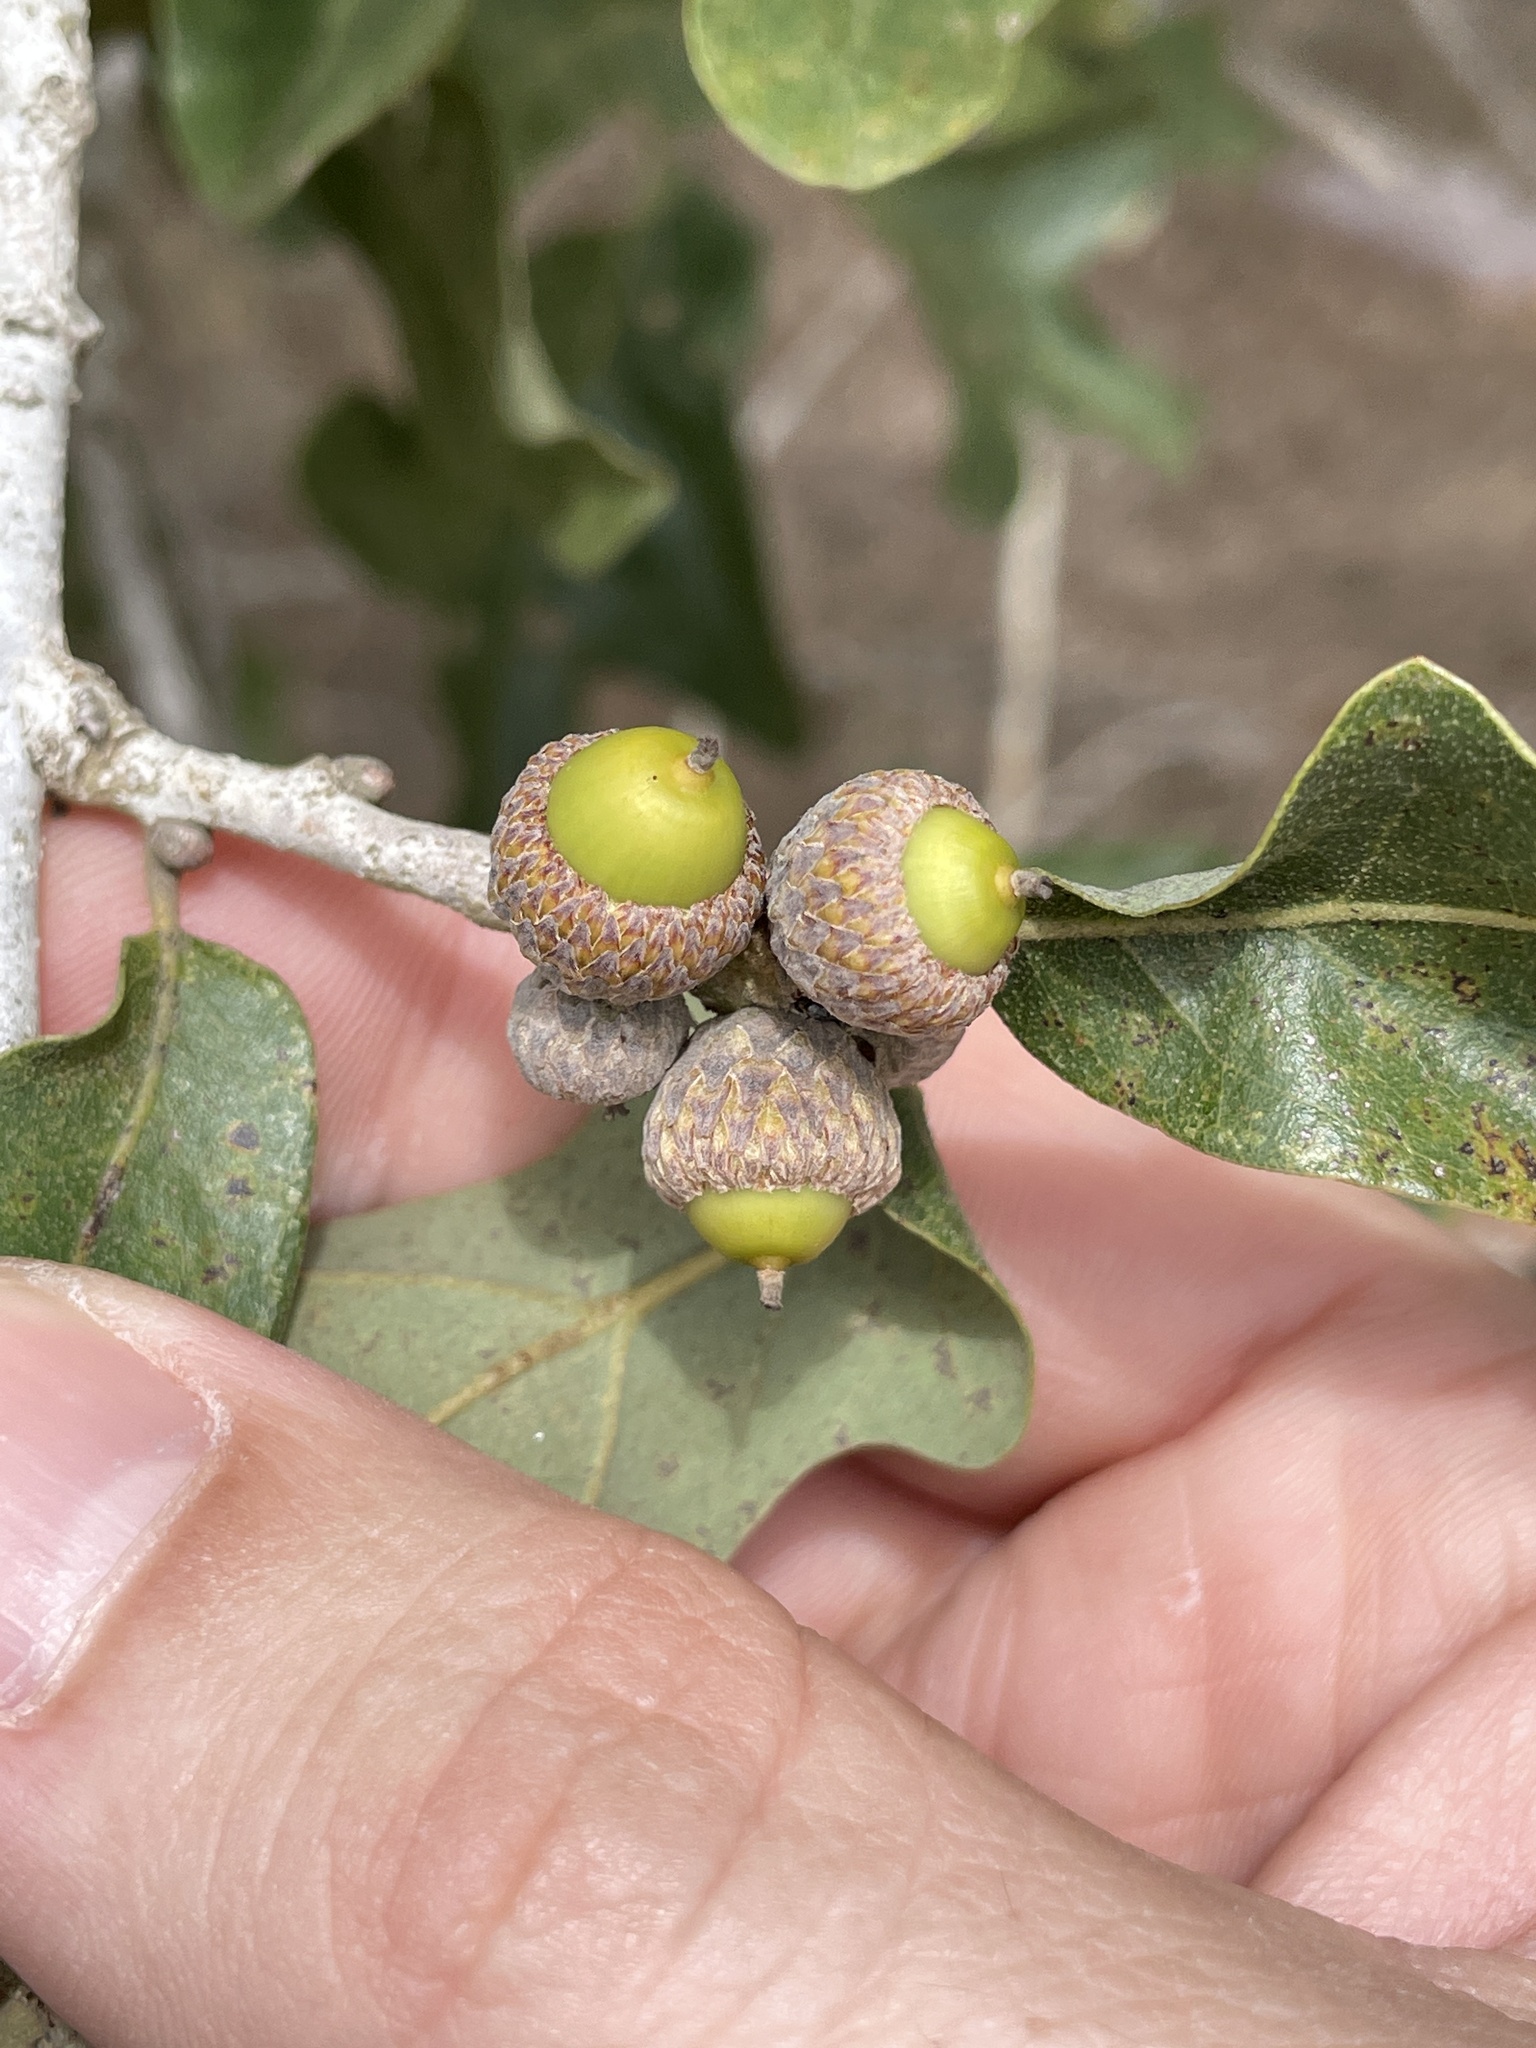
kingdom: Plantae
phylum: Tracheophyta
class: Magnoliopsida
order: Fagales
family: Fagaceae
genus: Quercus
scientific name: Quercus stellata
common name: Post oak
